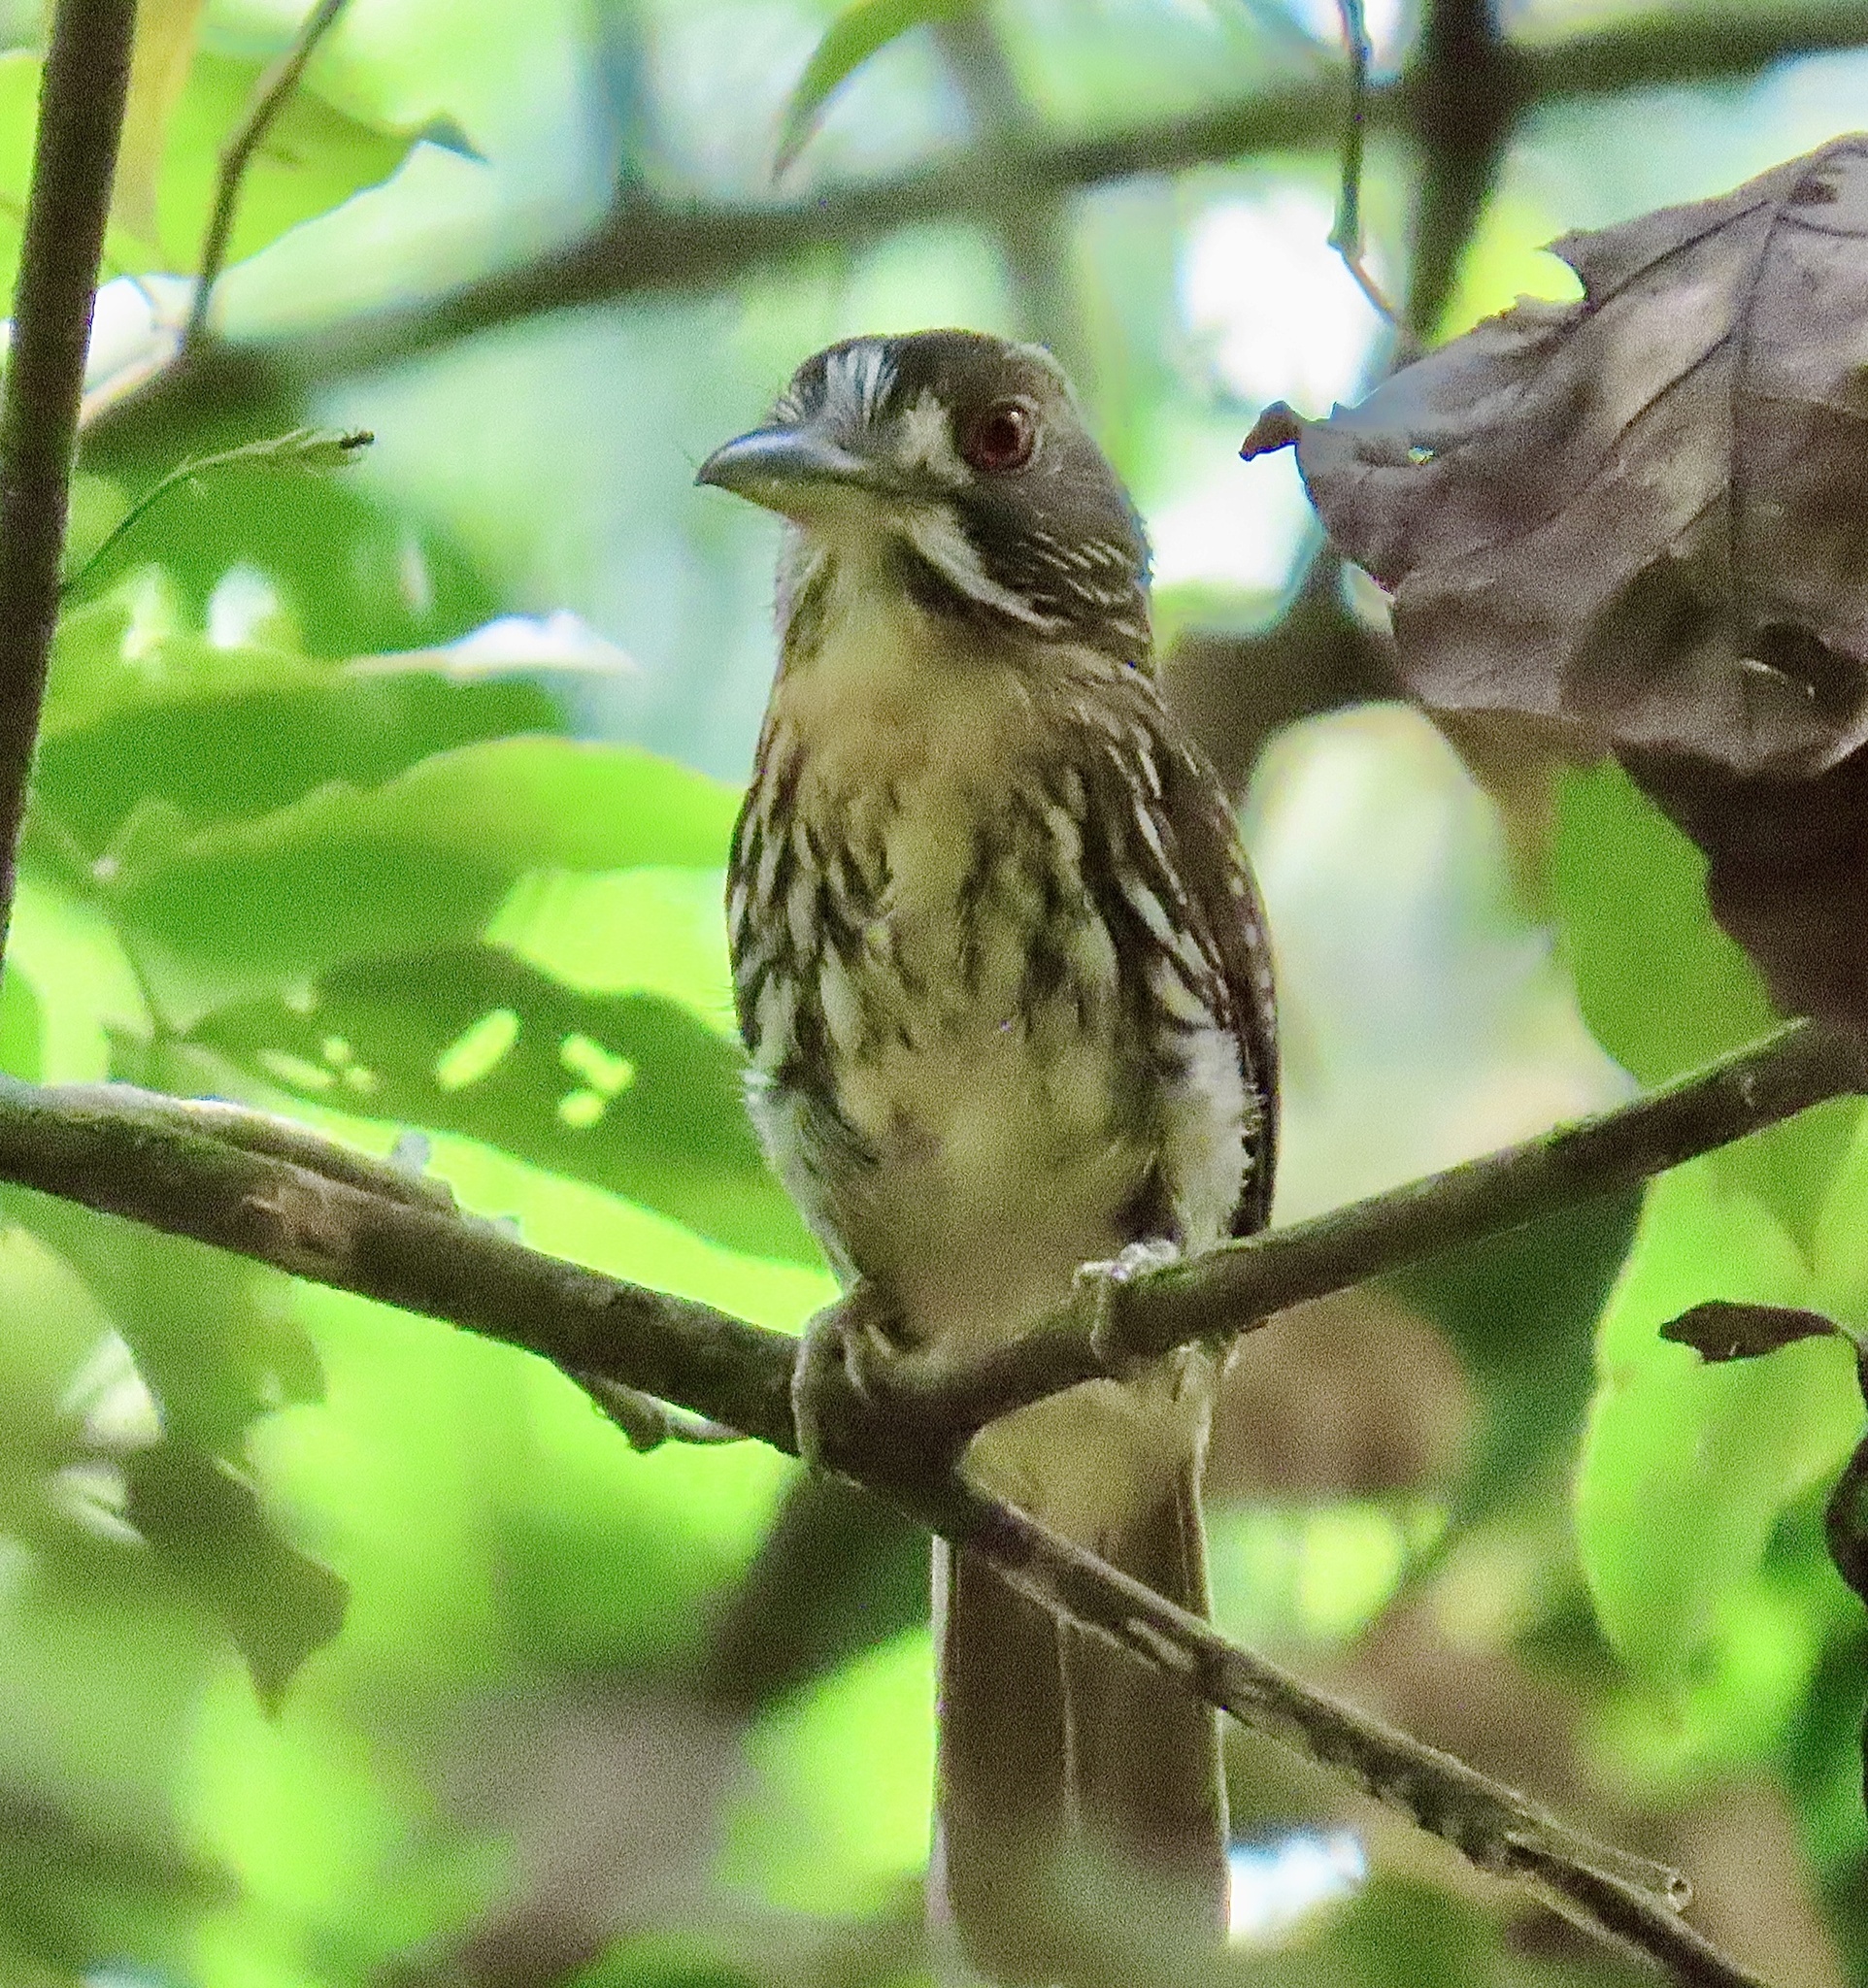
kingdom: Animalia
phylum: Chordata
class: Aves
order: Piciformes
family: Bucconidae
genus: Malacoptila
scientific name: Malacoptila panamensis
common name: White-whiskered puffbird
